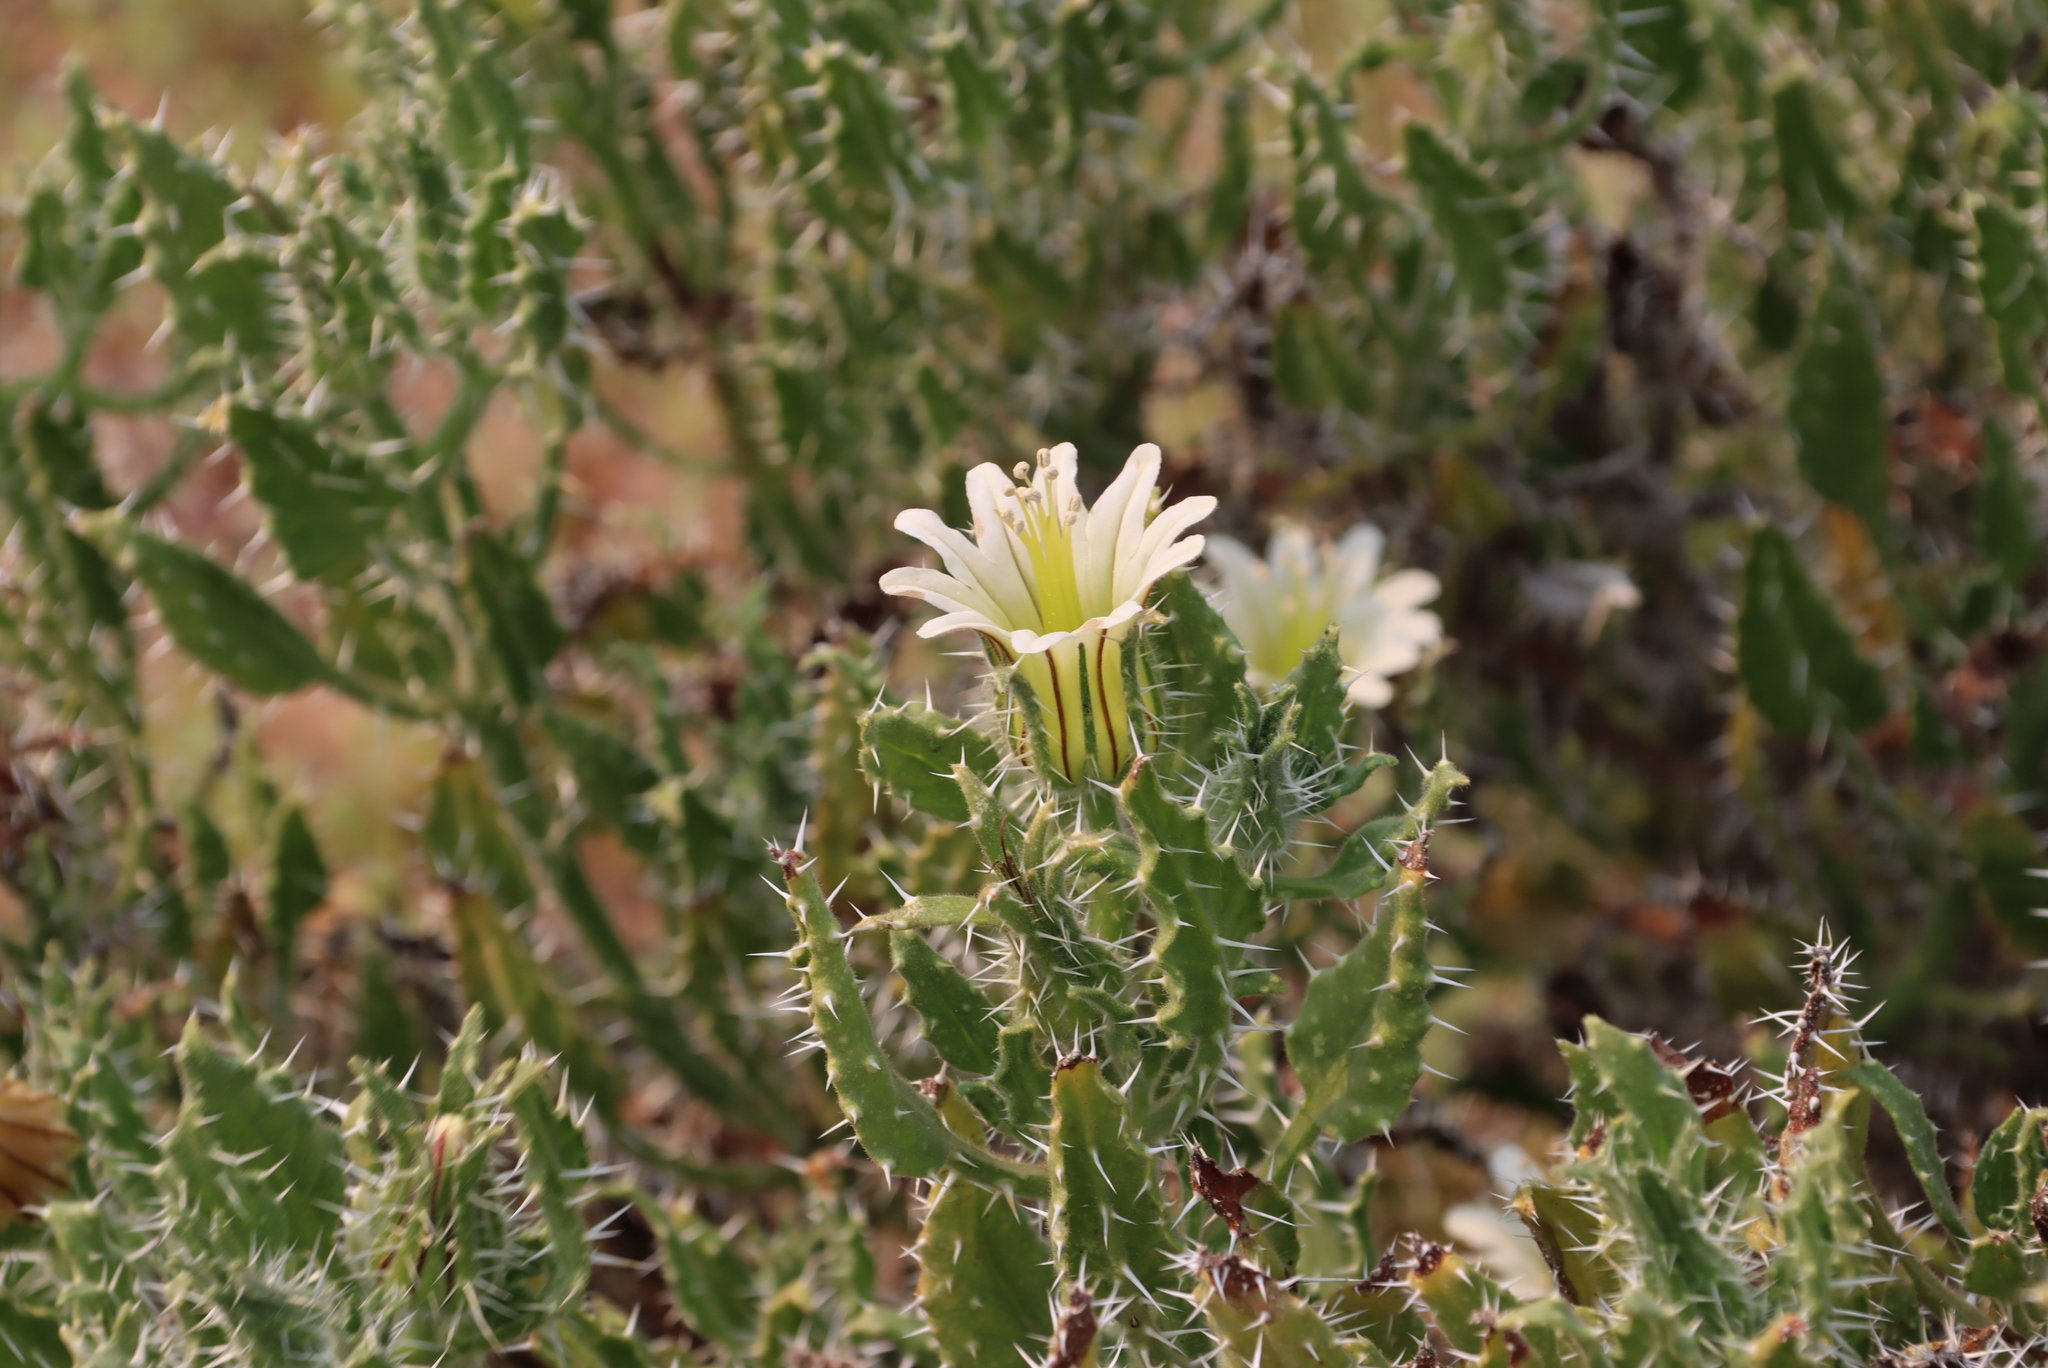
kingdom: Plantae
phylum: Tracheophyta
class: Magnoliopsida
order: Boraginales
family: Boraginaceae
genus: Codon
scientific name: Codon royenii
